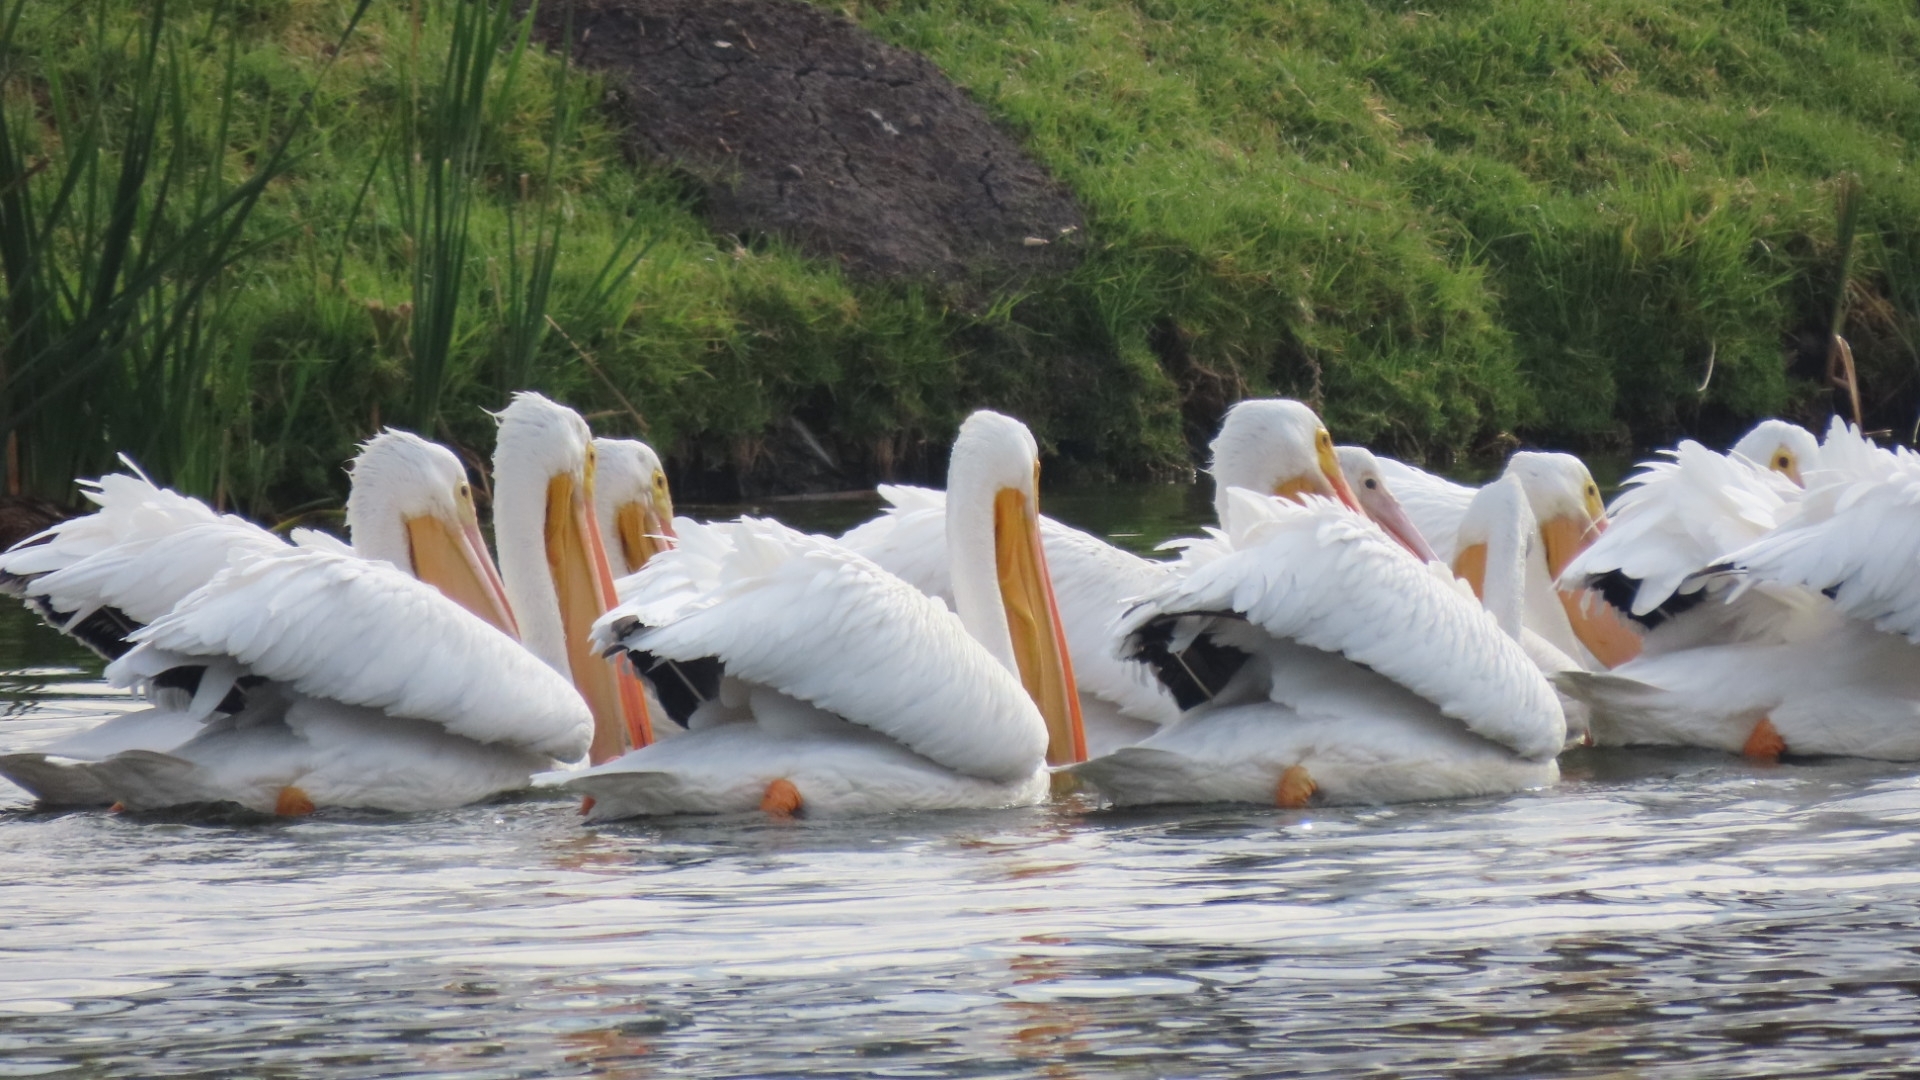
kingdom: Animalia
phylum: Chordata
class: Aves
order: Pelecaniformes
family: Pelecanidae
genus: Pelecanus
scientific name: Pelecanus erythrorhynchos
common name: American white pelican
